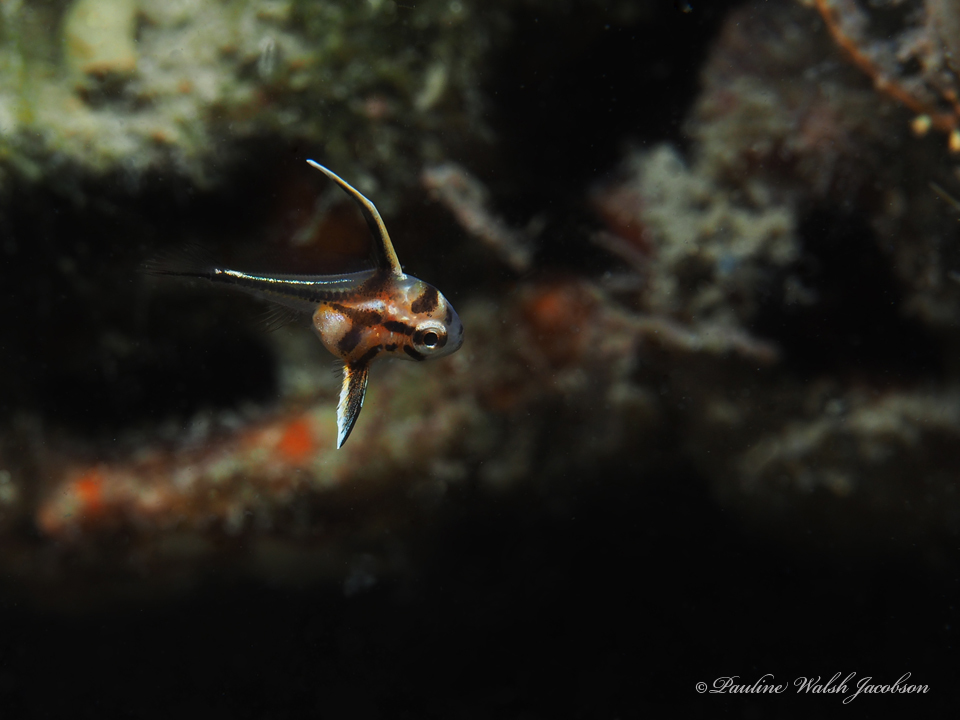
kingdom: Animalia
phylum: Chordata
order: Perciformes
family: Sciaenidae
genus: Pareques
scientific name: Pareques acuminatus
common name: High-hat
